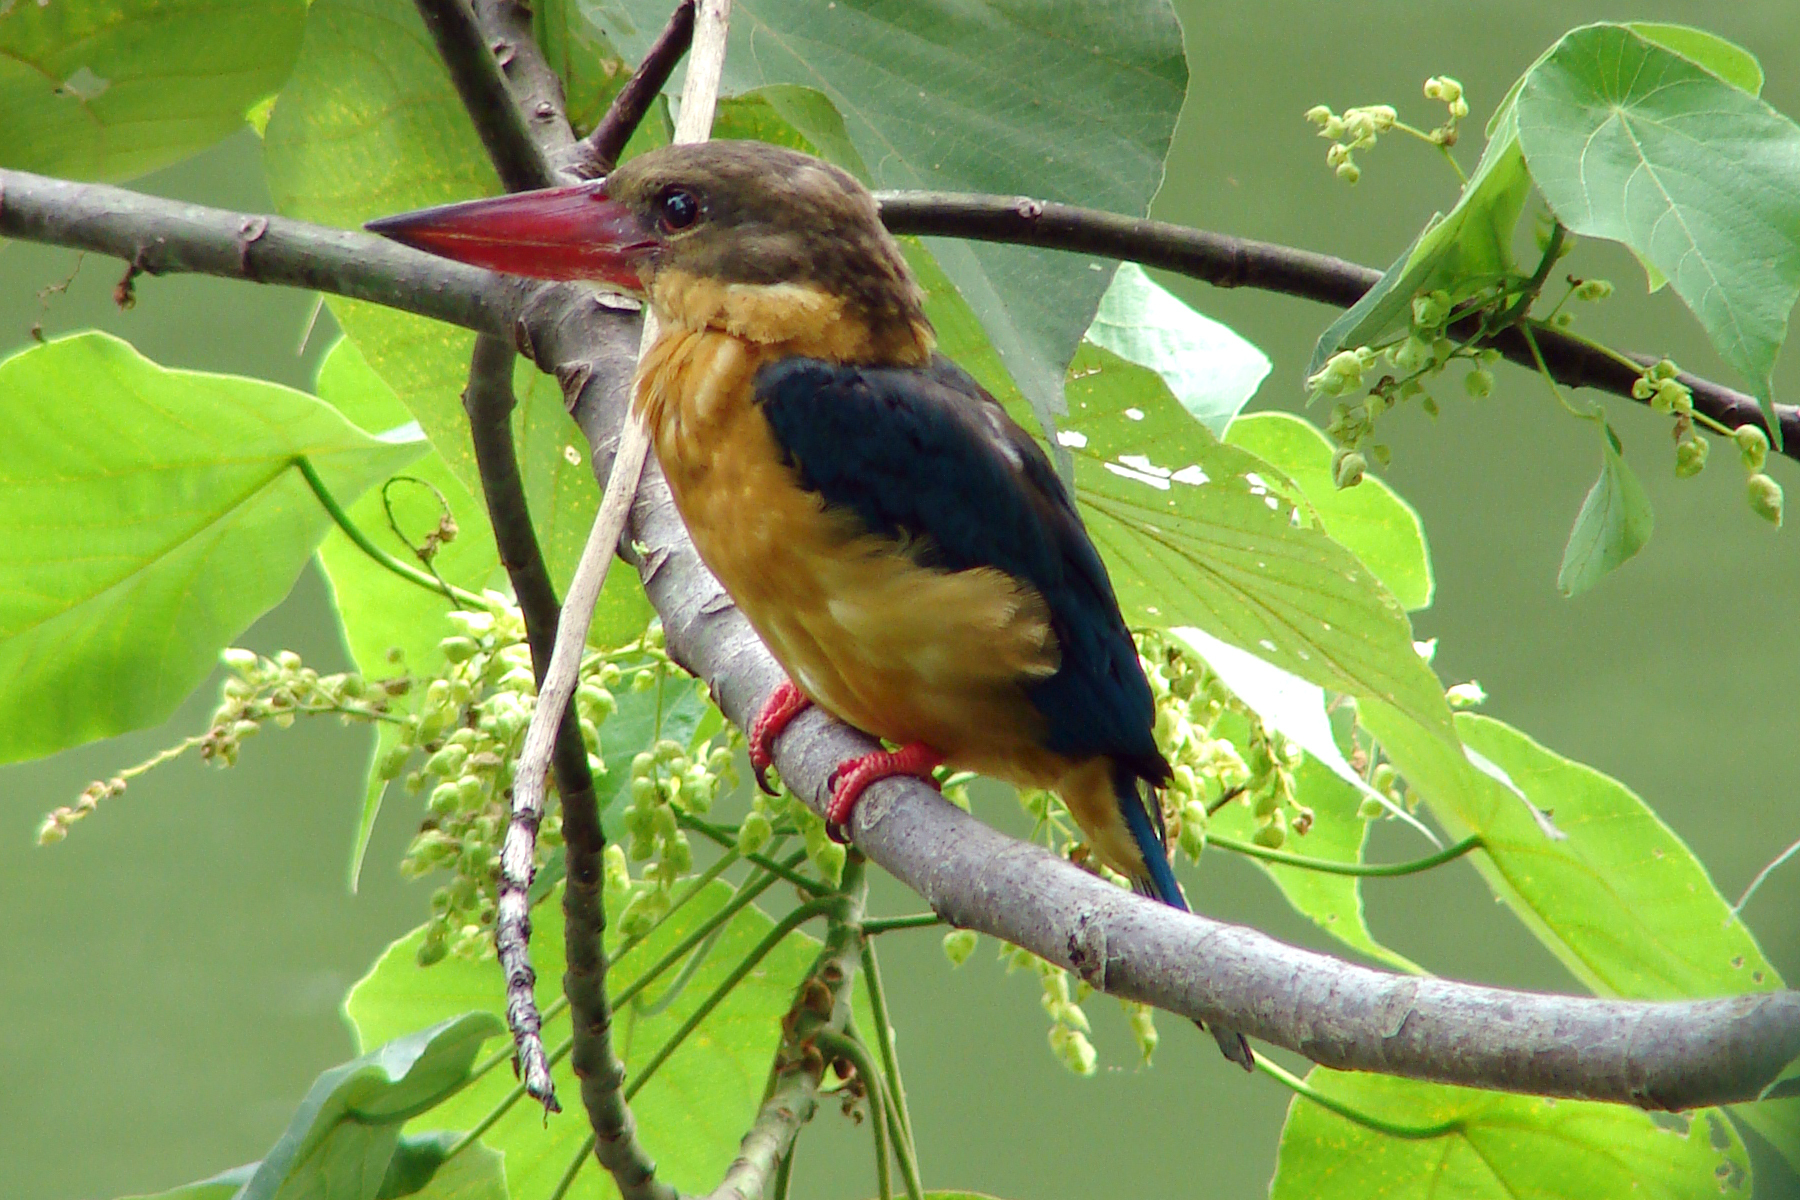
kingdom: Animalia
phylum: Chordata
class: Aves
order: Coraciiformes
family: Alcedinidae
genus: Pelargopsis
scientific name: Pelargopsis capensis
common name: Stork-billed kingfisher
